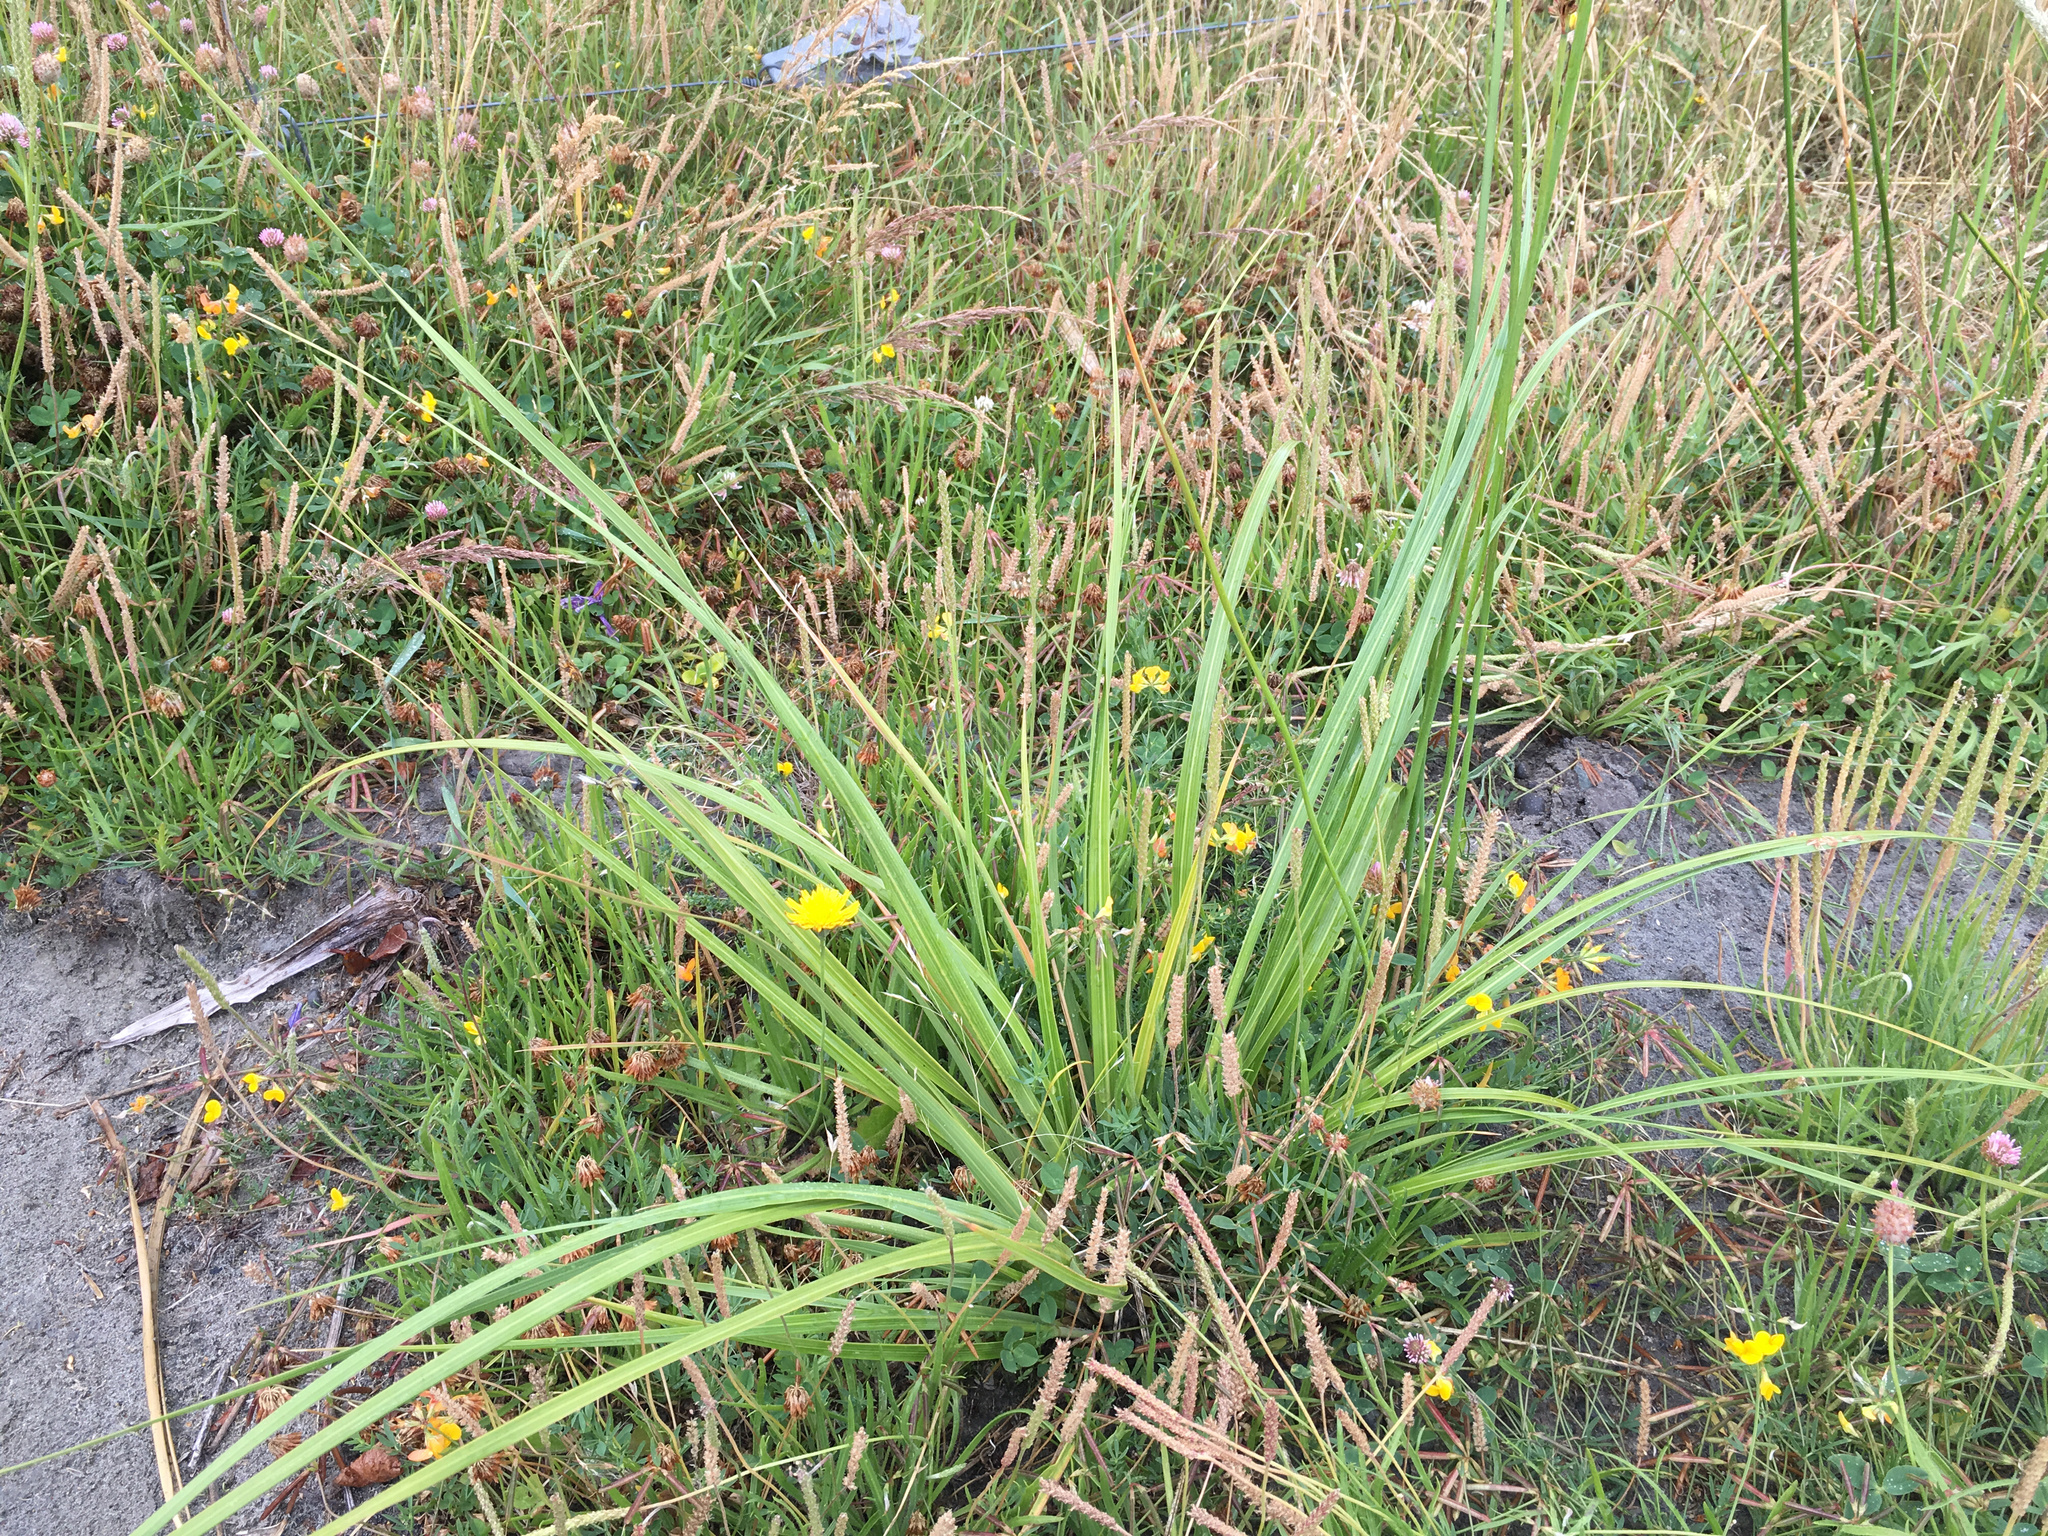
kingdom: Plantae
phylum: Tracheophyta
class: Liliopsida
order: Poales
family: Poaceae
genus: Austroderia
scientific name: Austroderia richardii
